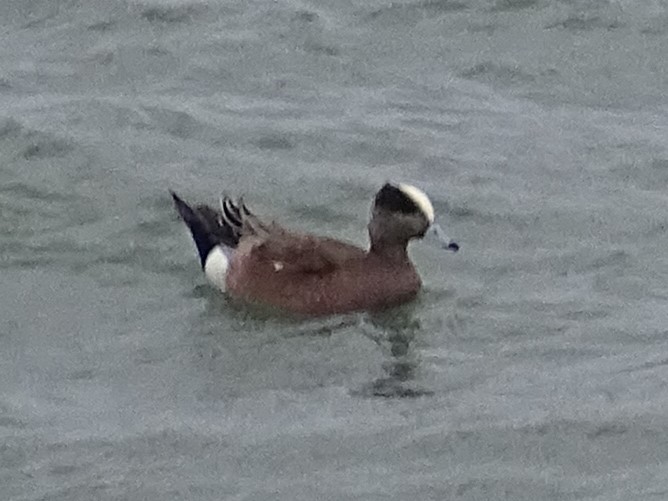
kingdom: Animalia
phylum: Chordata
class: Aves
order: Anseriformes
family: Anatidae
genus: Mareca
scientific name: Mareca americana
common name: American wigeon
